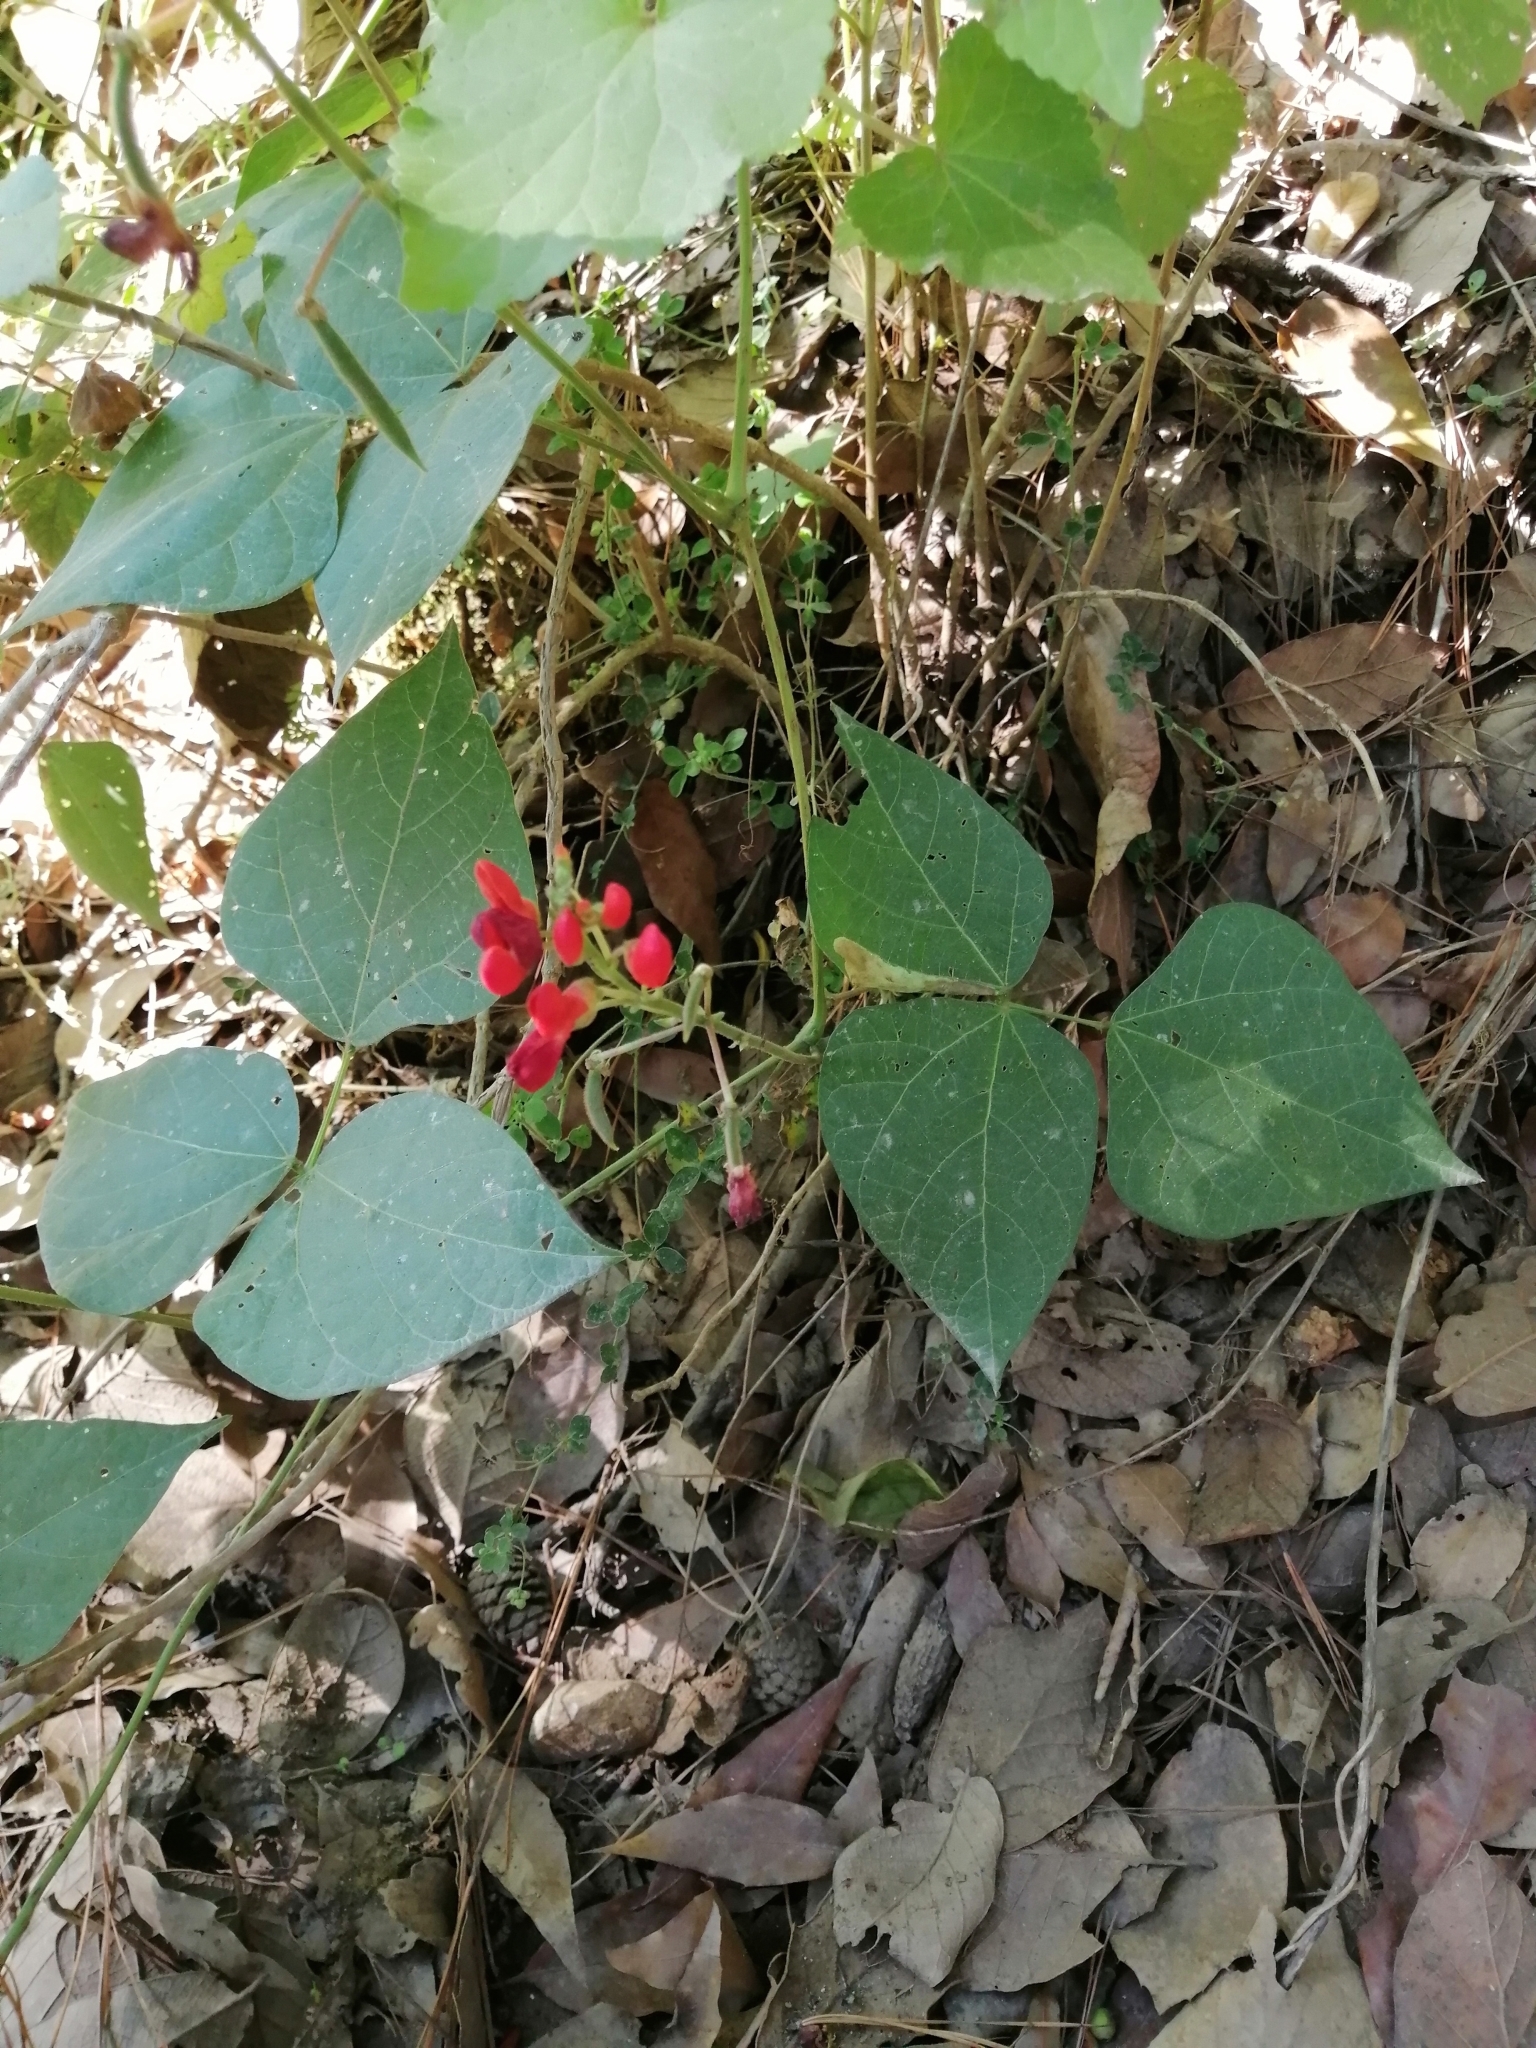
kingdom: Plantae
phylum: Tracheophyta
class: Magnoliopsida
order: Fabales
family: Fabaceae
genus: Phaseolus
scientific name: Phaseolus coccineus
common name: Runner bean
